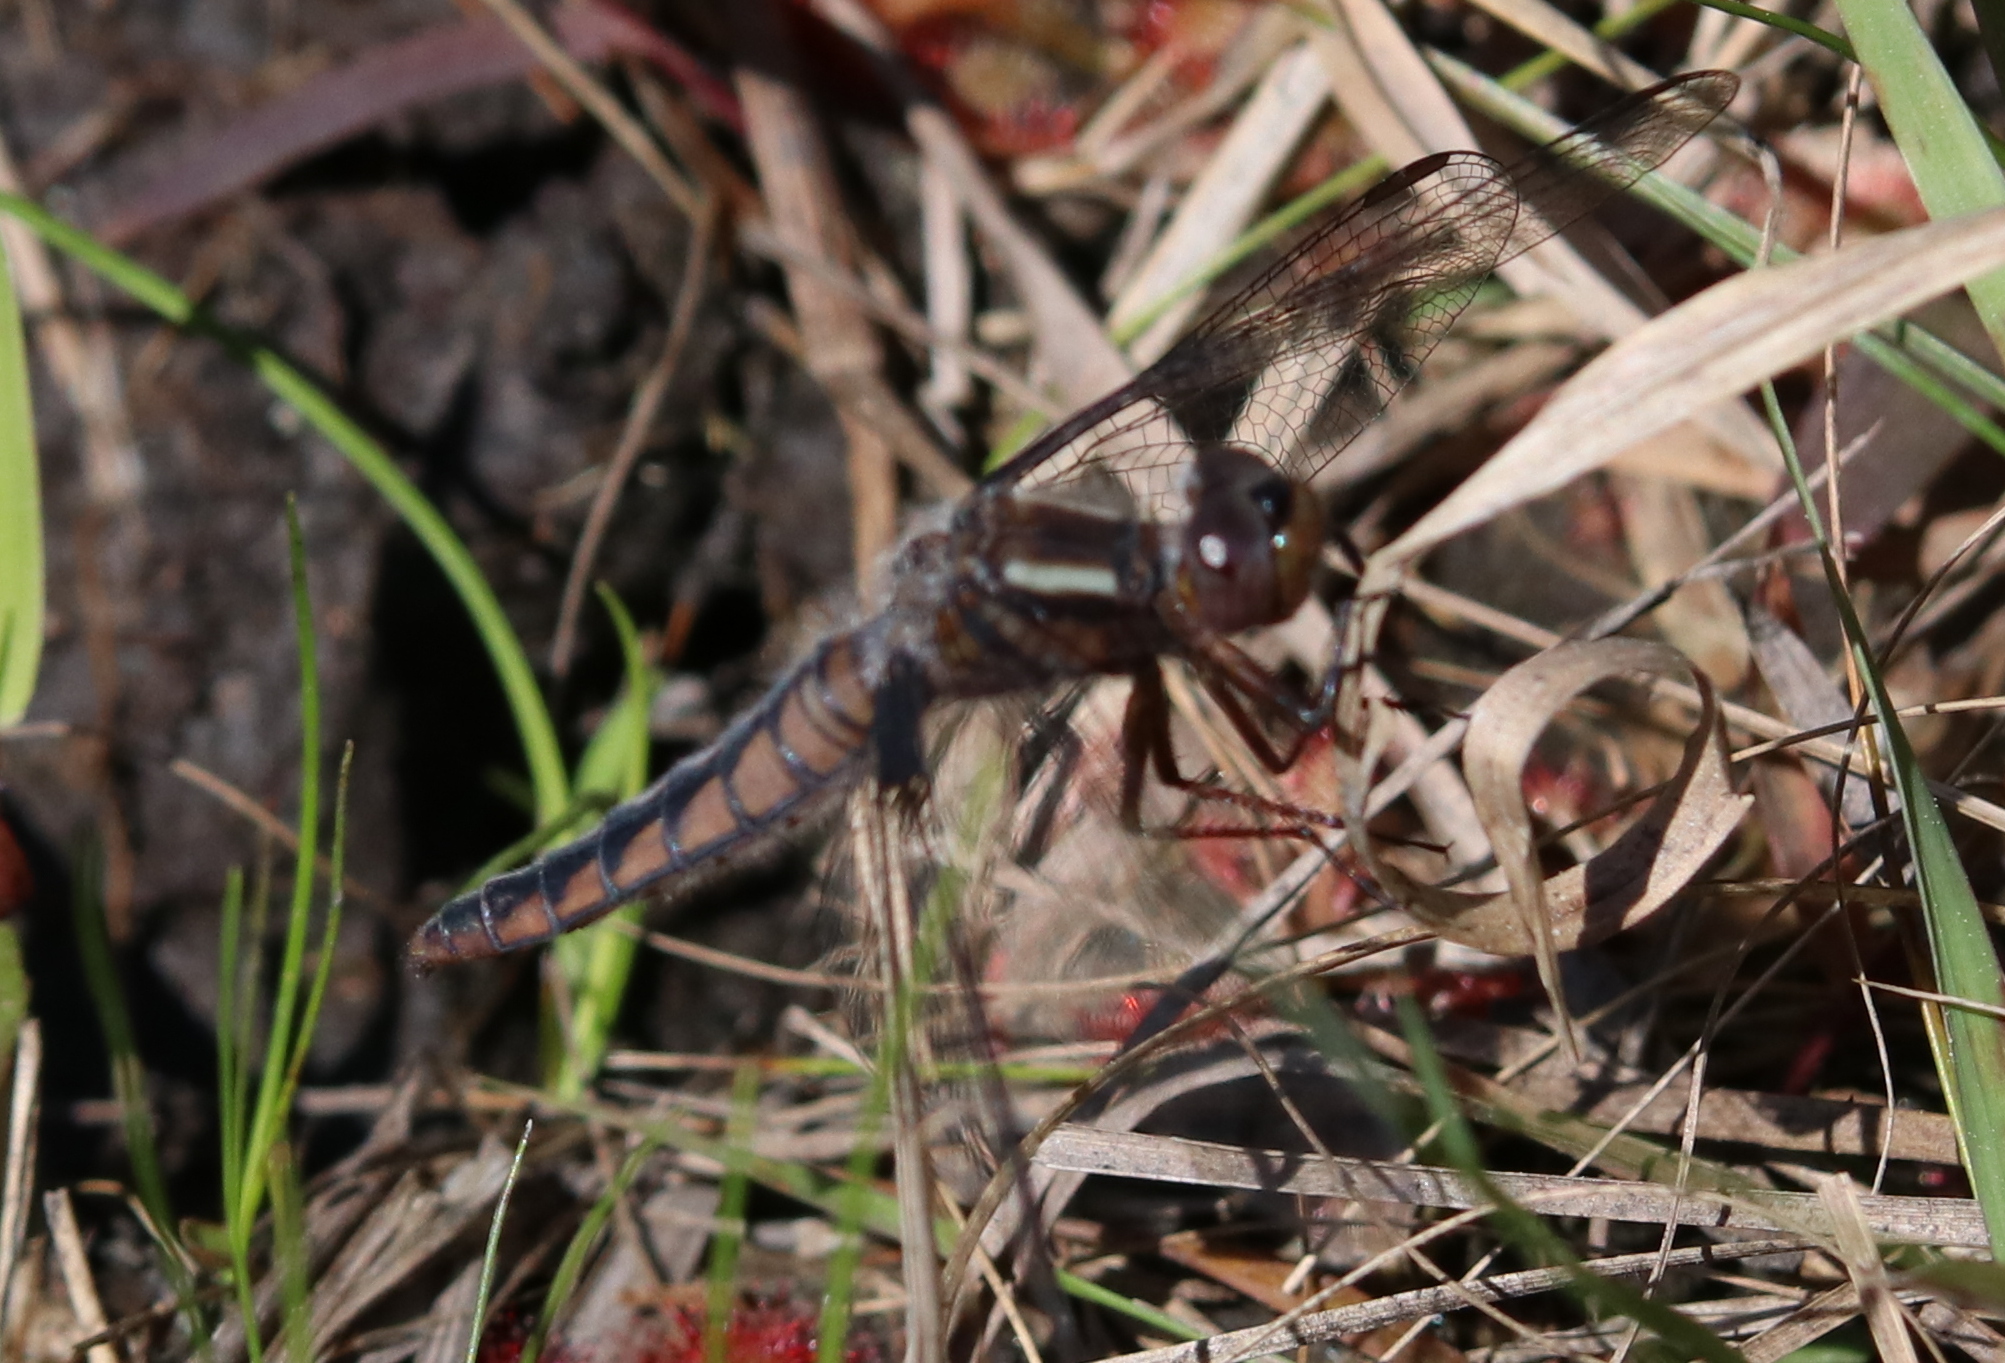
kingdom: Animalia
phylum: Arthropoda
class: Insecta
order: Odonata
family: Libellulidae
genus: Ladona
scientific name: Ladona deplanata
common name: Blue corporal
